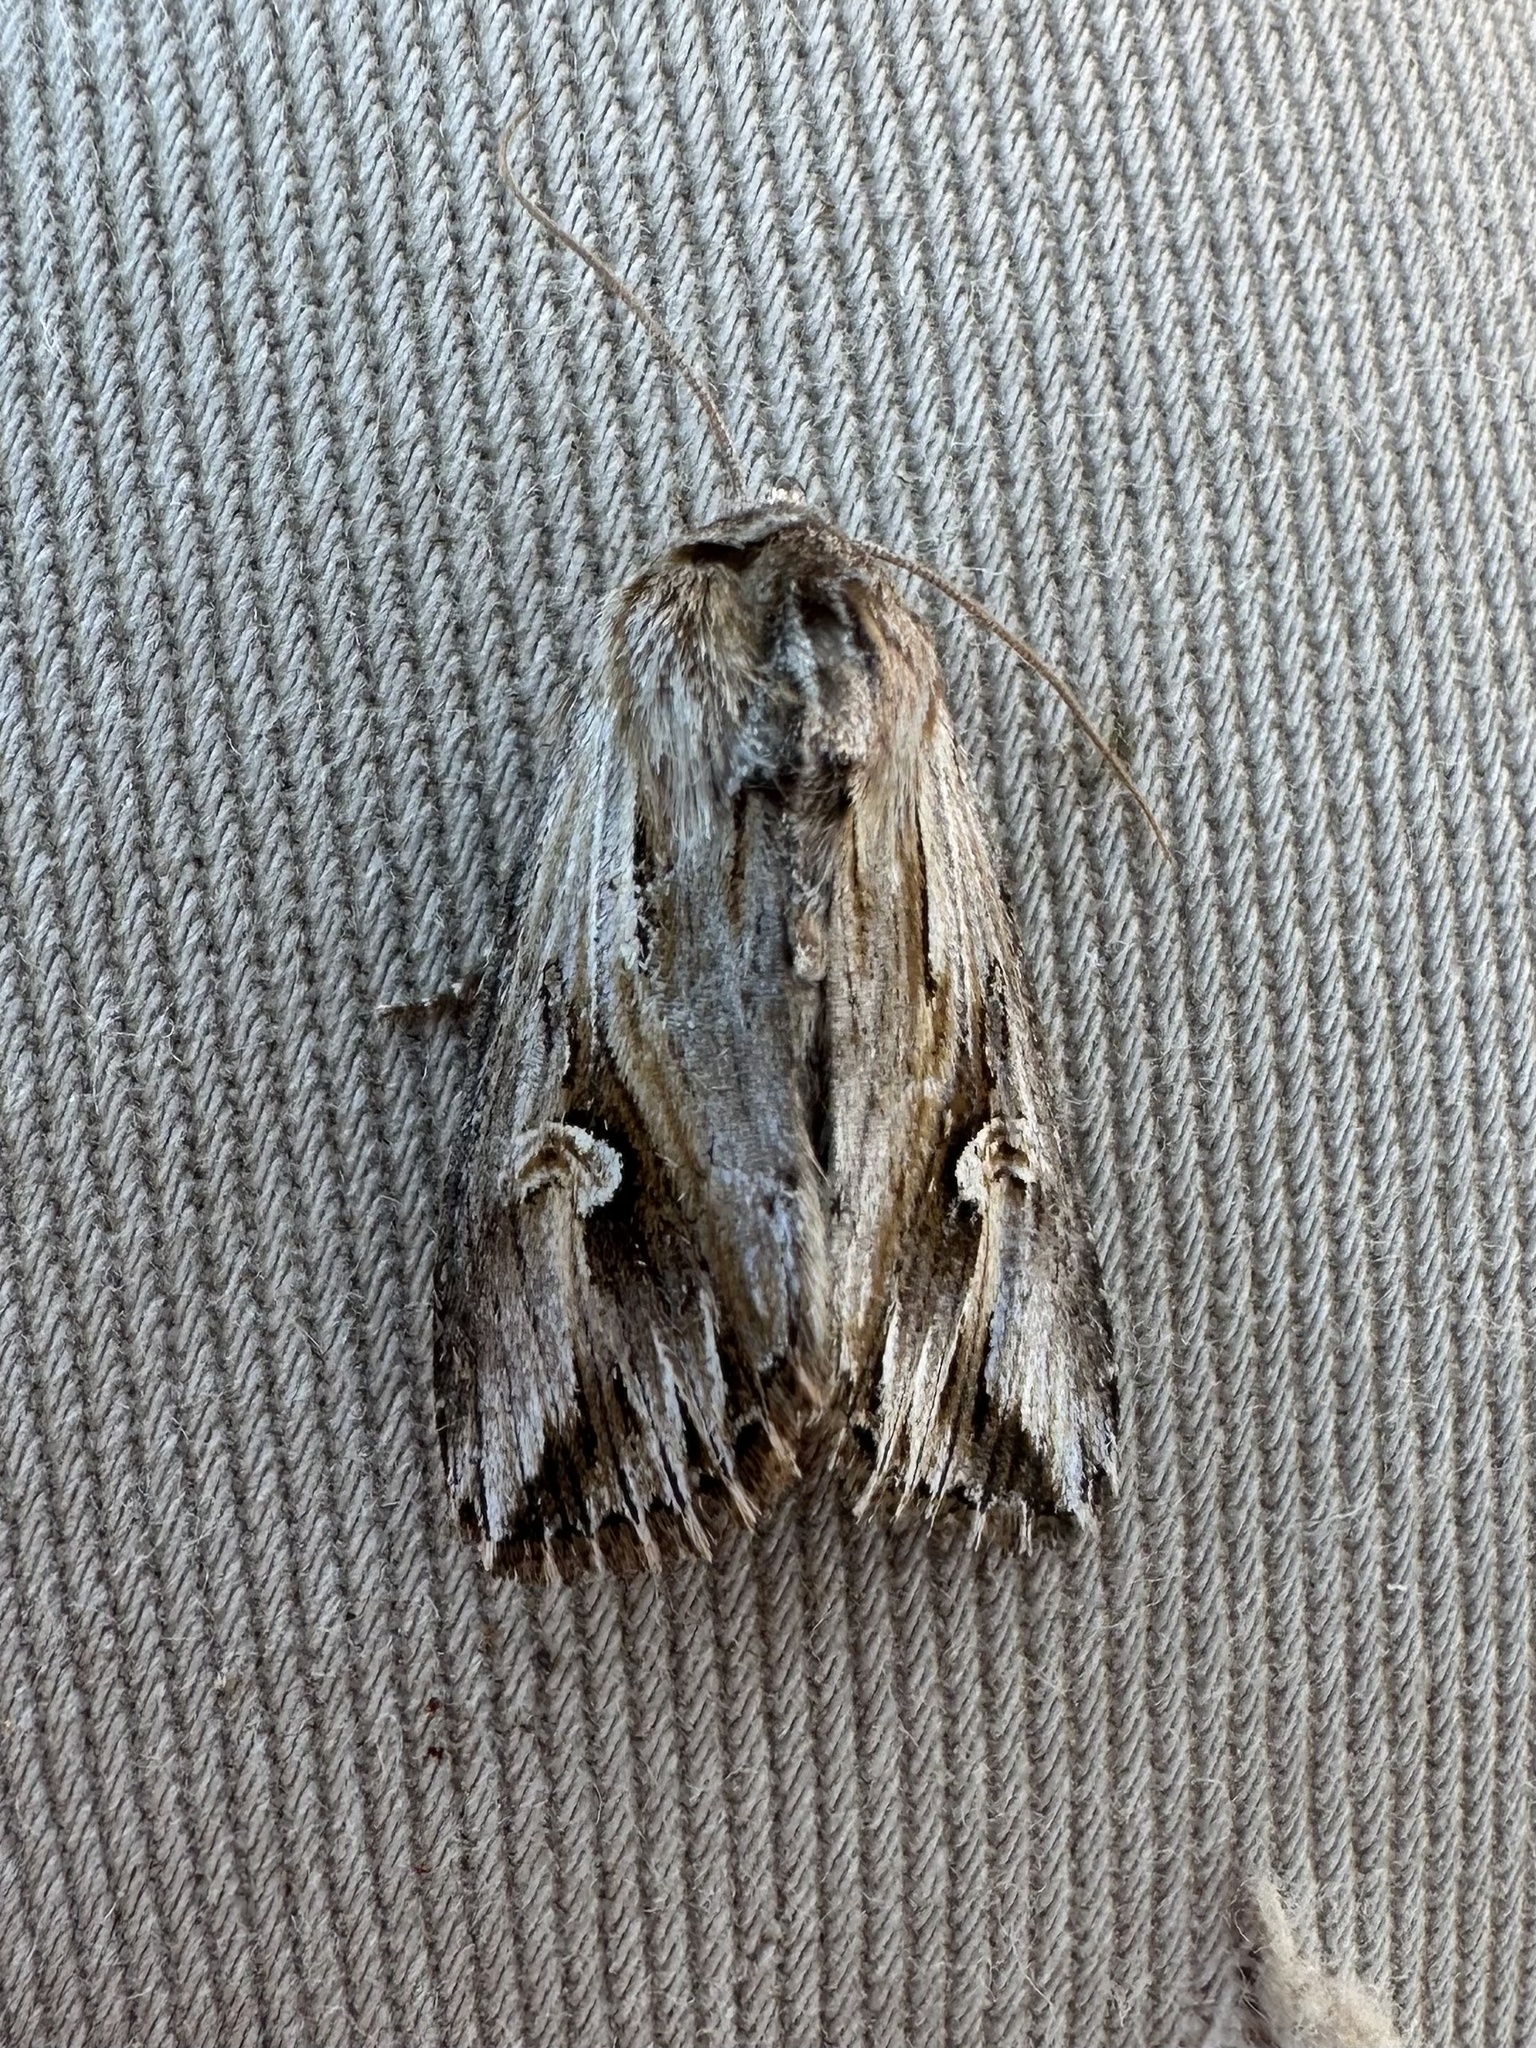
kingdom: Animalia
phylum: Arthropoda
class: Insecta
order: Lepidoptera
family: Noctuidae
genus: Nedra
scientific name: Nedra ramosula
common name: Gray half-spot
